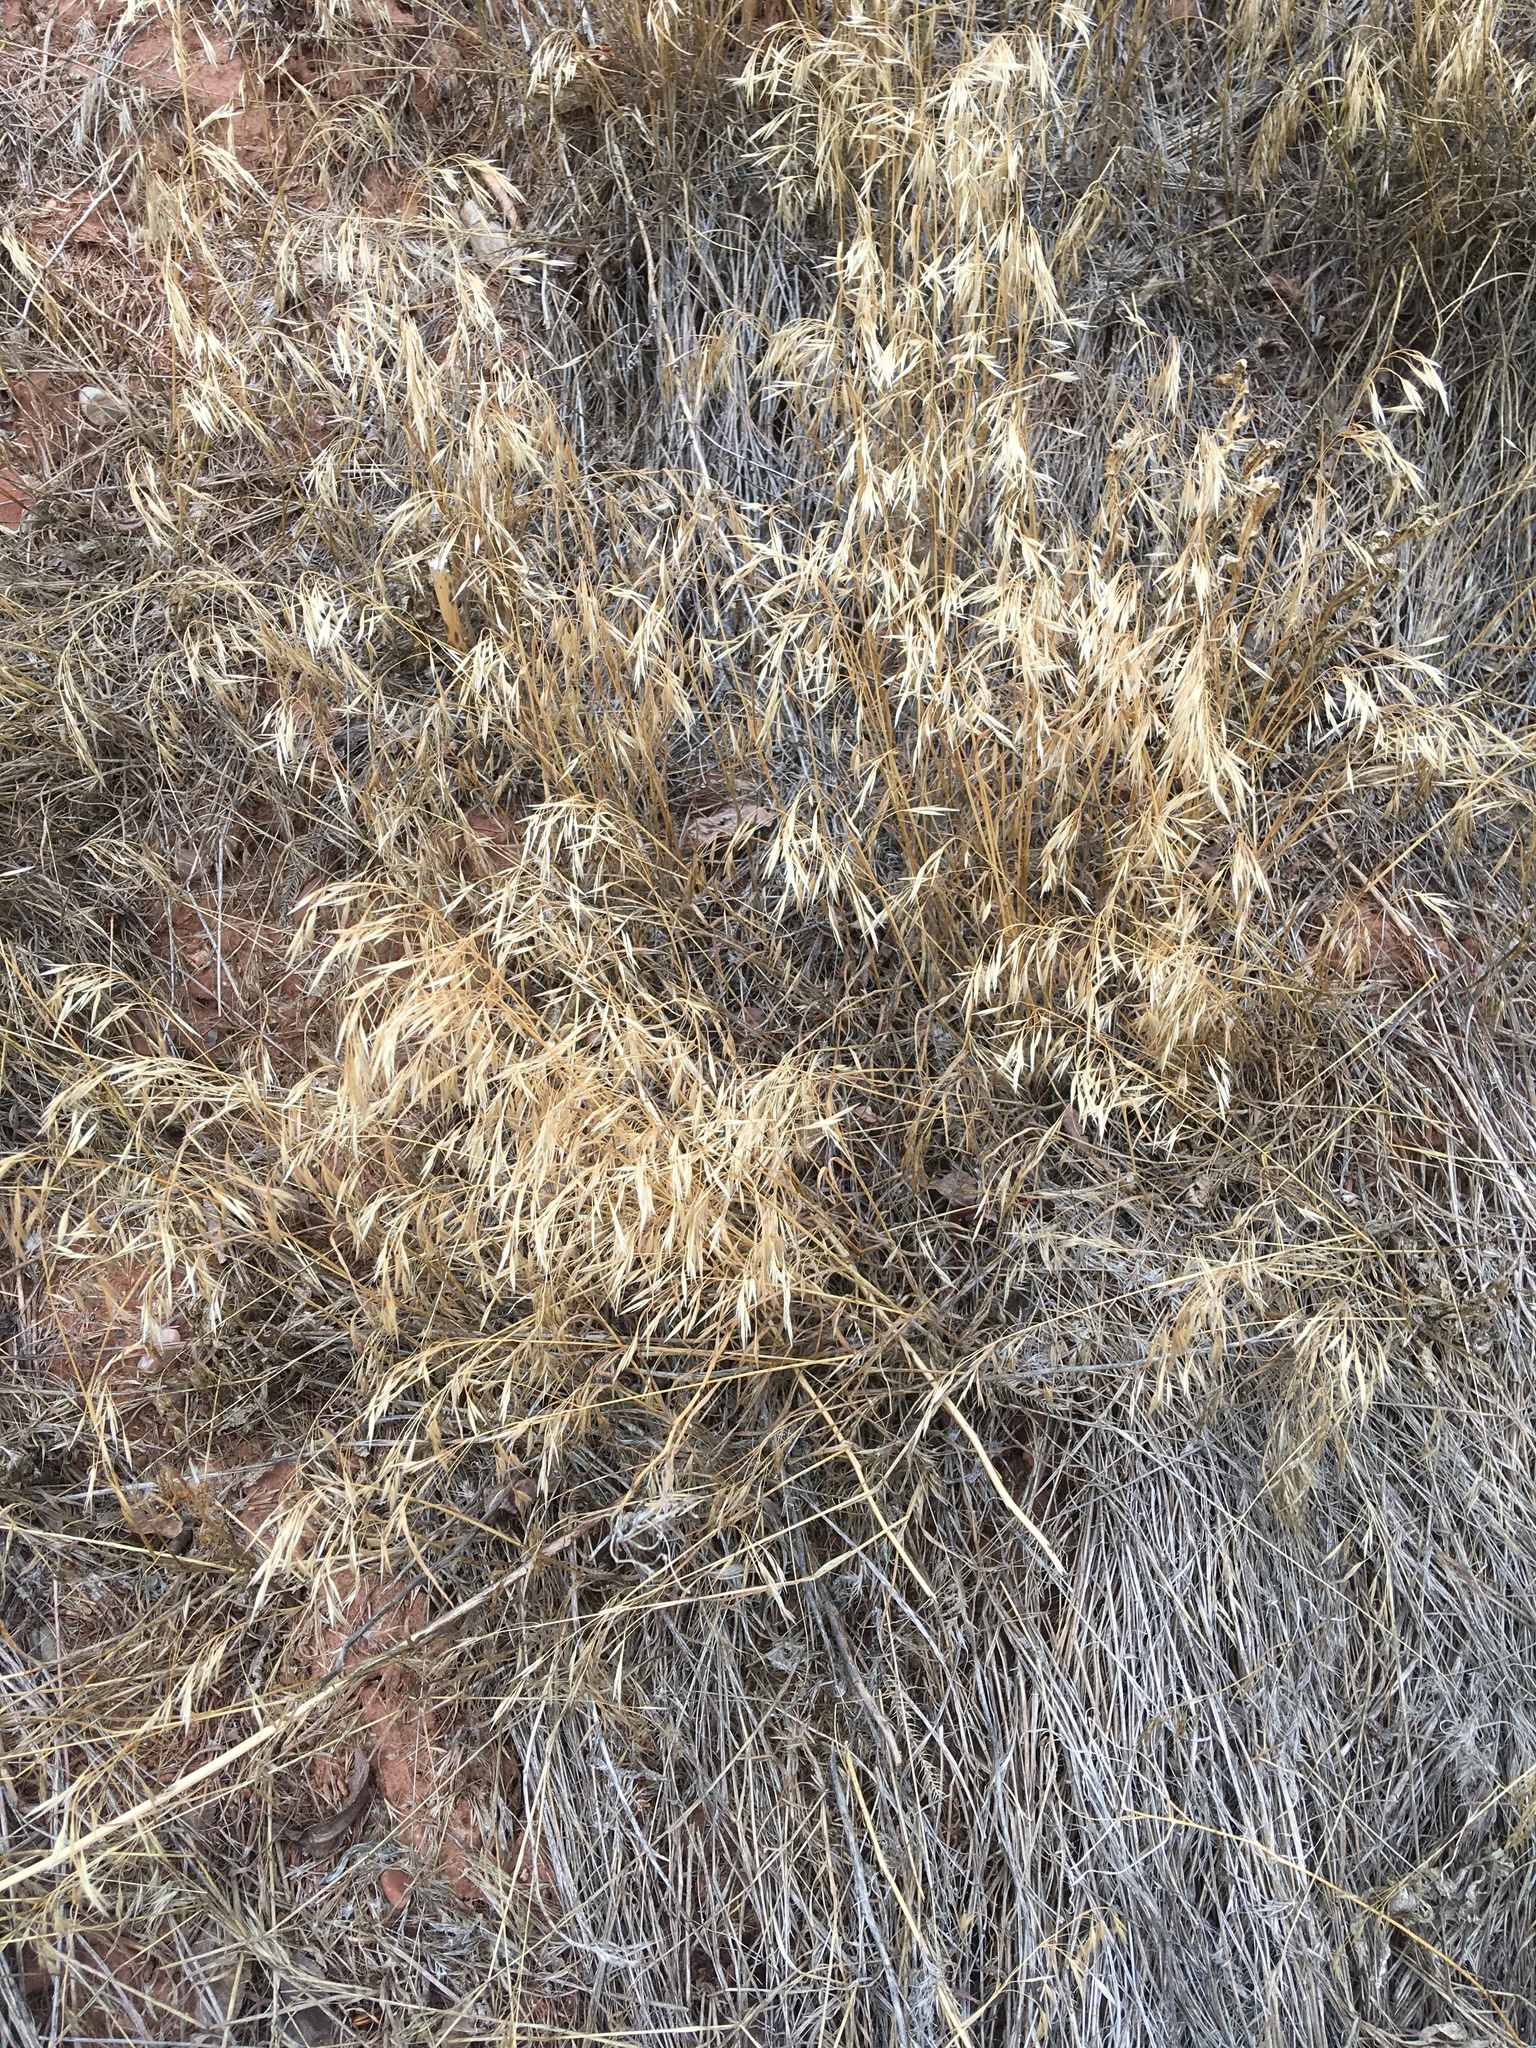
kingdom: Plantae
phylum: Tracheophyta
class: Liliopsida
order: Poales
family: Poaceae
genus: Bromus
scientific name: Bromus tectorum
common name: Cheatgrass
